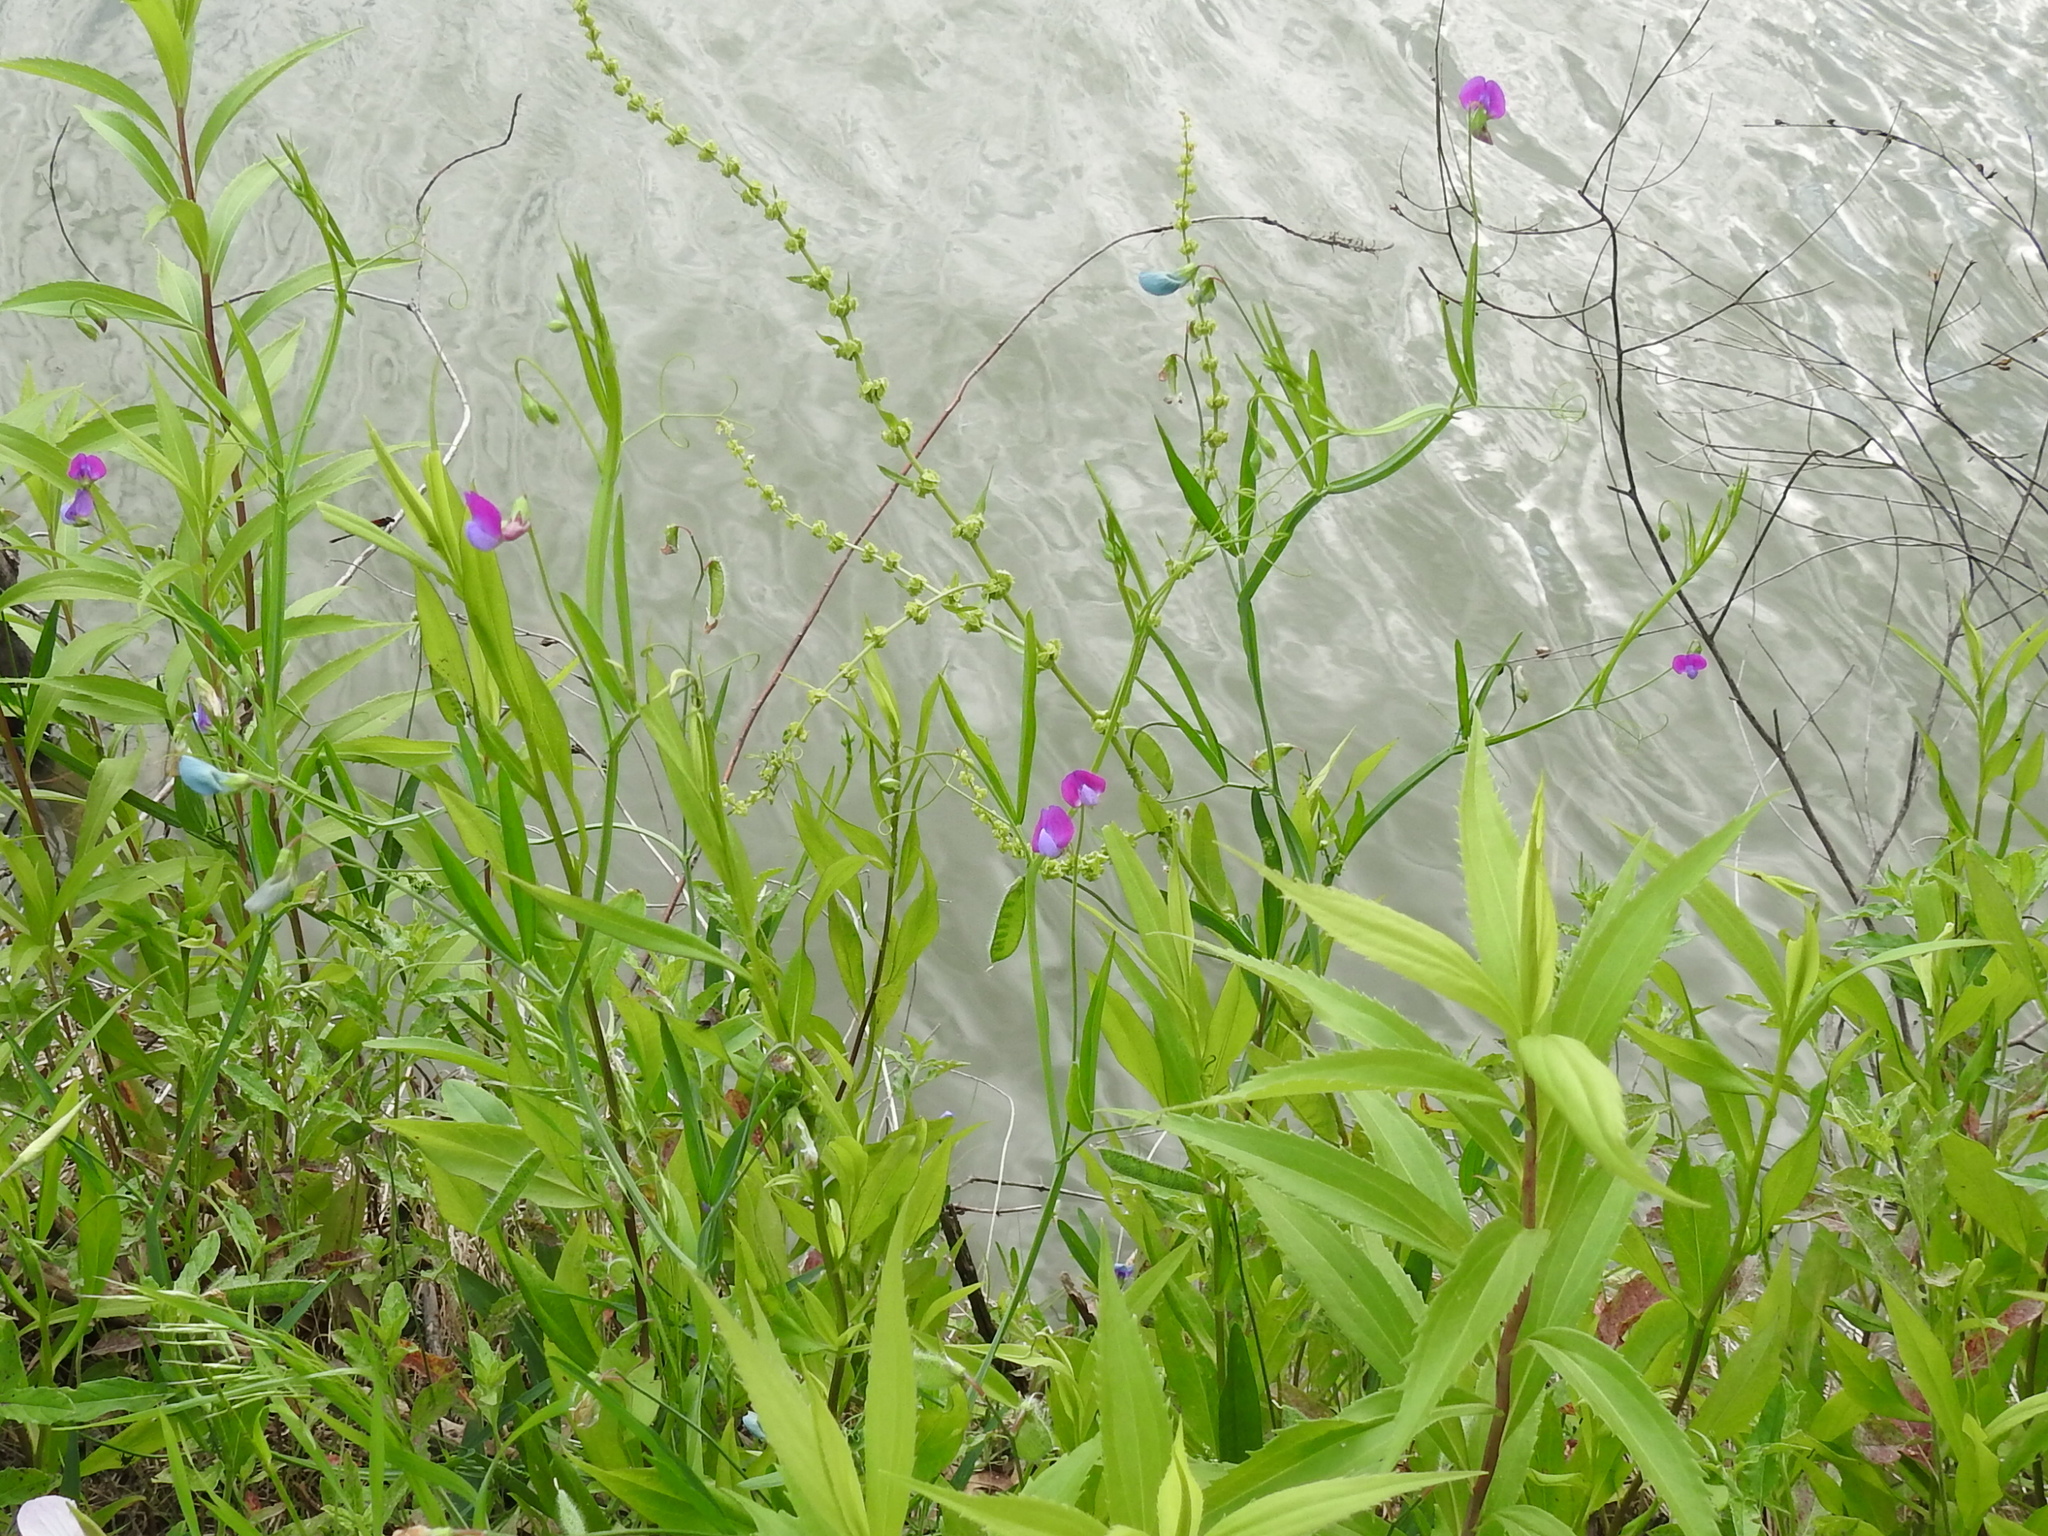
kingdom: Plantae
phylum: Tracheophyta
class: Magnoliopsida
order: Fabales
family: Fabaceae
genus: Lathyrus
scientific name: Lathyrus hirsutus
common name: Hairy vetchling
